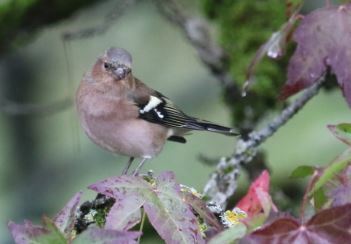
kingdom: Animalia
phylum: Chordata
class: Aves
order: Passeriformes
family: Fringillidae
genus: Fringilla
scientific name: Fringilla coelebs
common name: Common chaffinch
